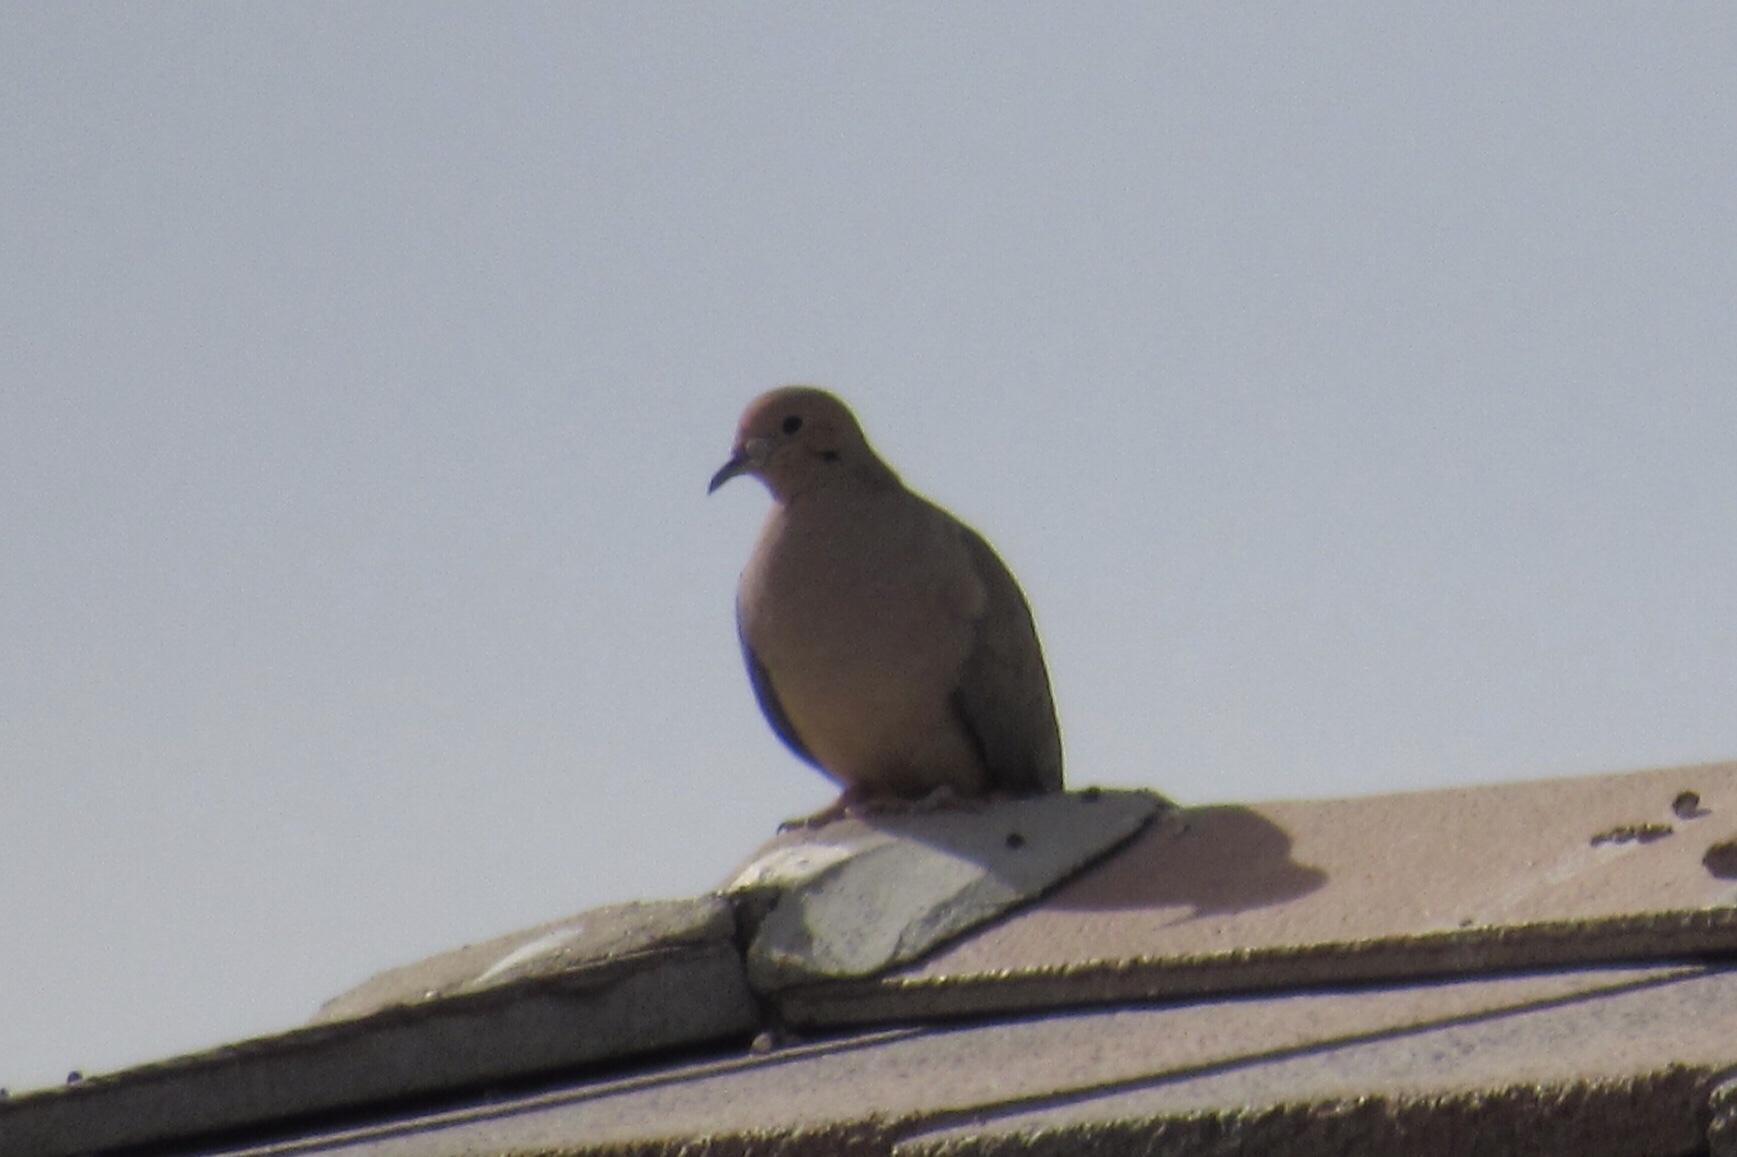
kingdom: Animalia
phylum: Chordata
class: Aves
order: Columbiformes
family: Columbidae
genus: Zenaida
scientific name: Zenaida macroura
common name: Mourning dove
